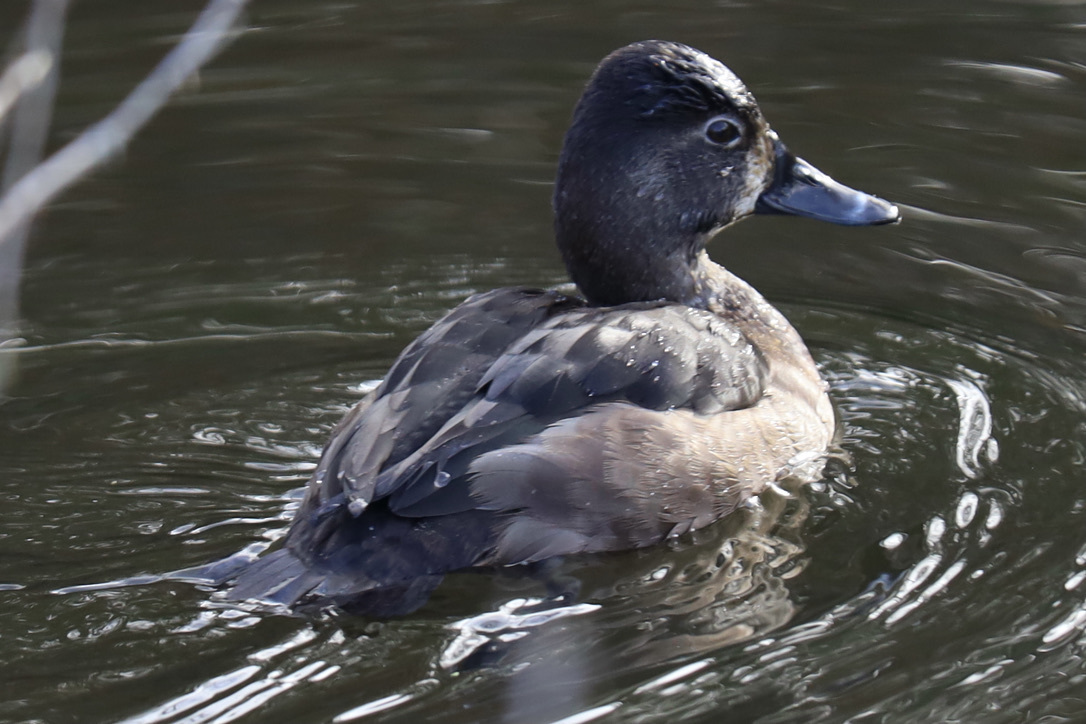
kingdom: Animalia
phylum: Chordata
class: Aves
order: Anseriformes
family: Anatidae
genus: Aythya
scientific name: Aythya collaris
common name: Ring-necked duck
